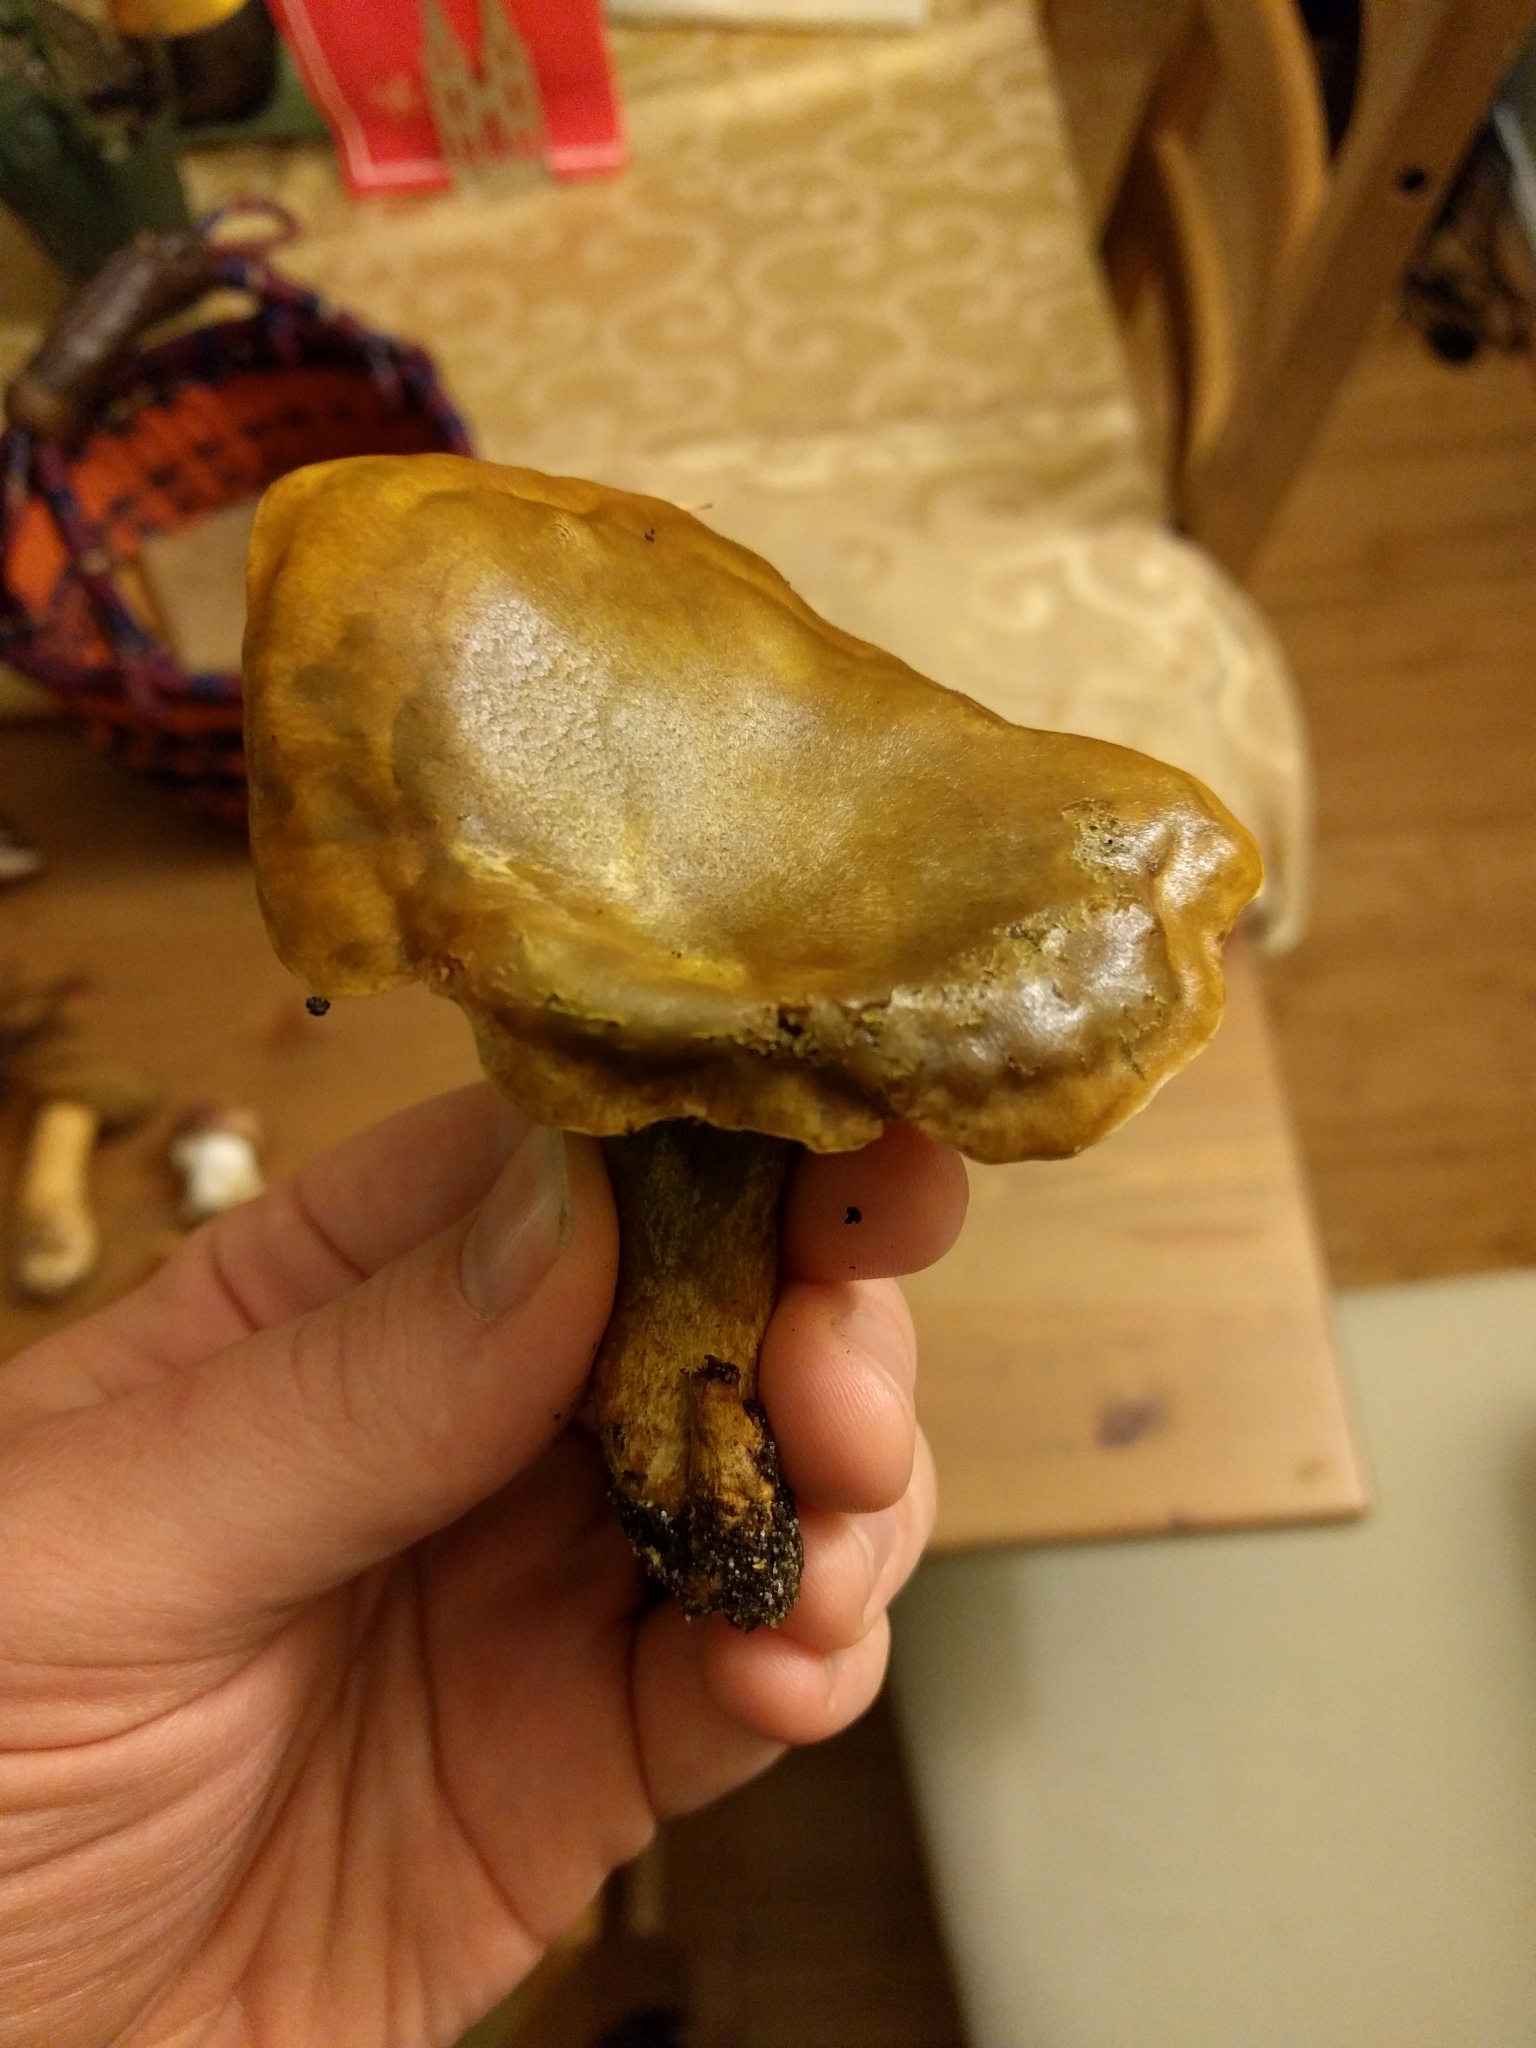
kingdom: Fungi
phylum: Basidiomycota
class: Agaricomycetes
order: Agaricales
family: Omphalotaceae
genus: Omphalotus
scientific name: Omphalotus olivascens
